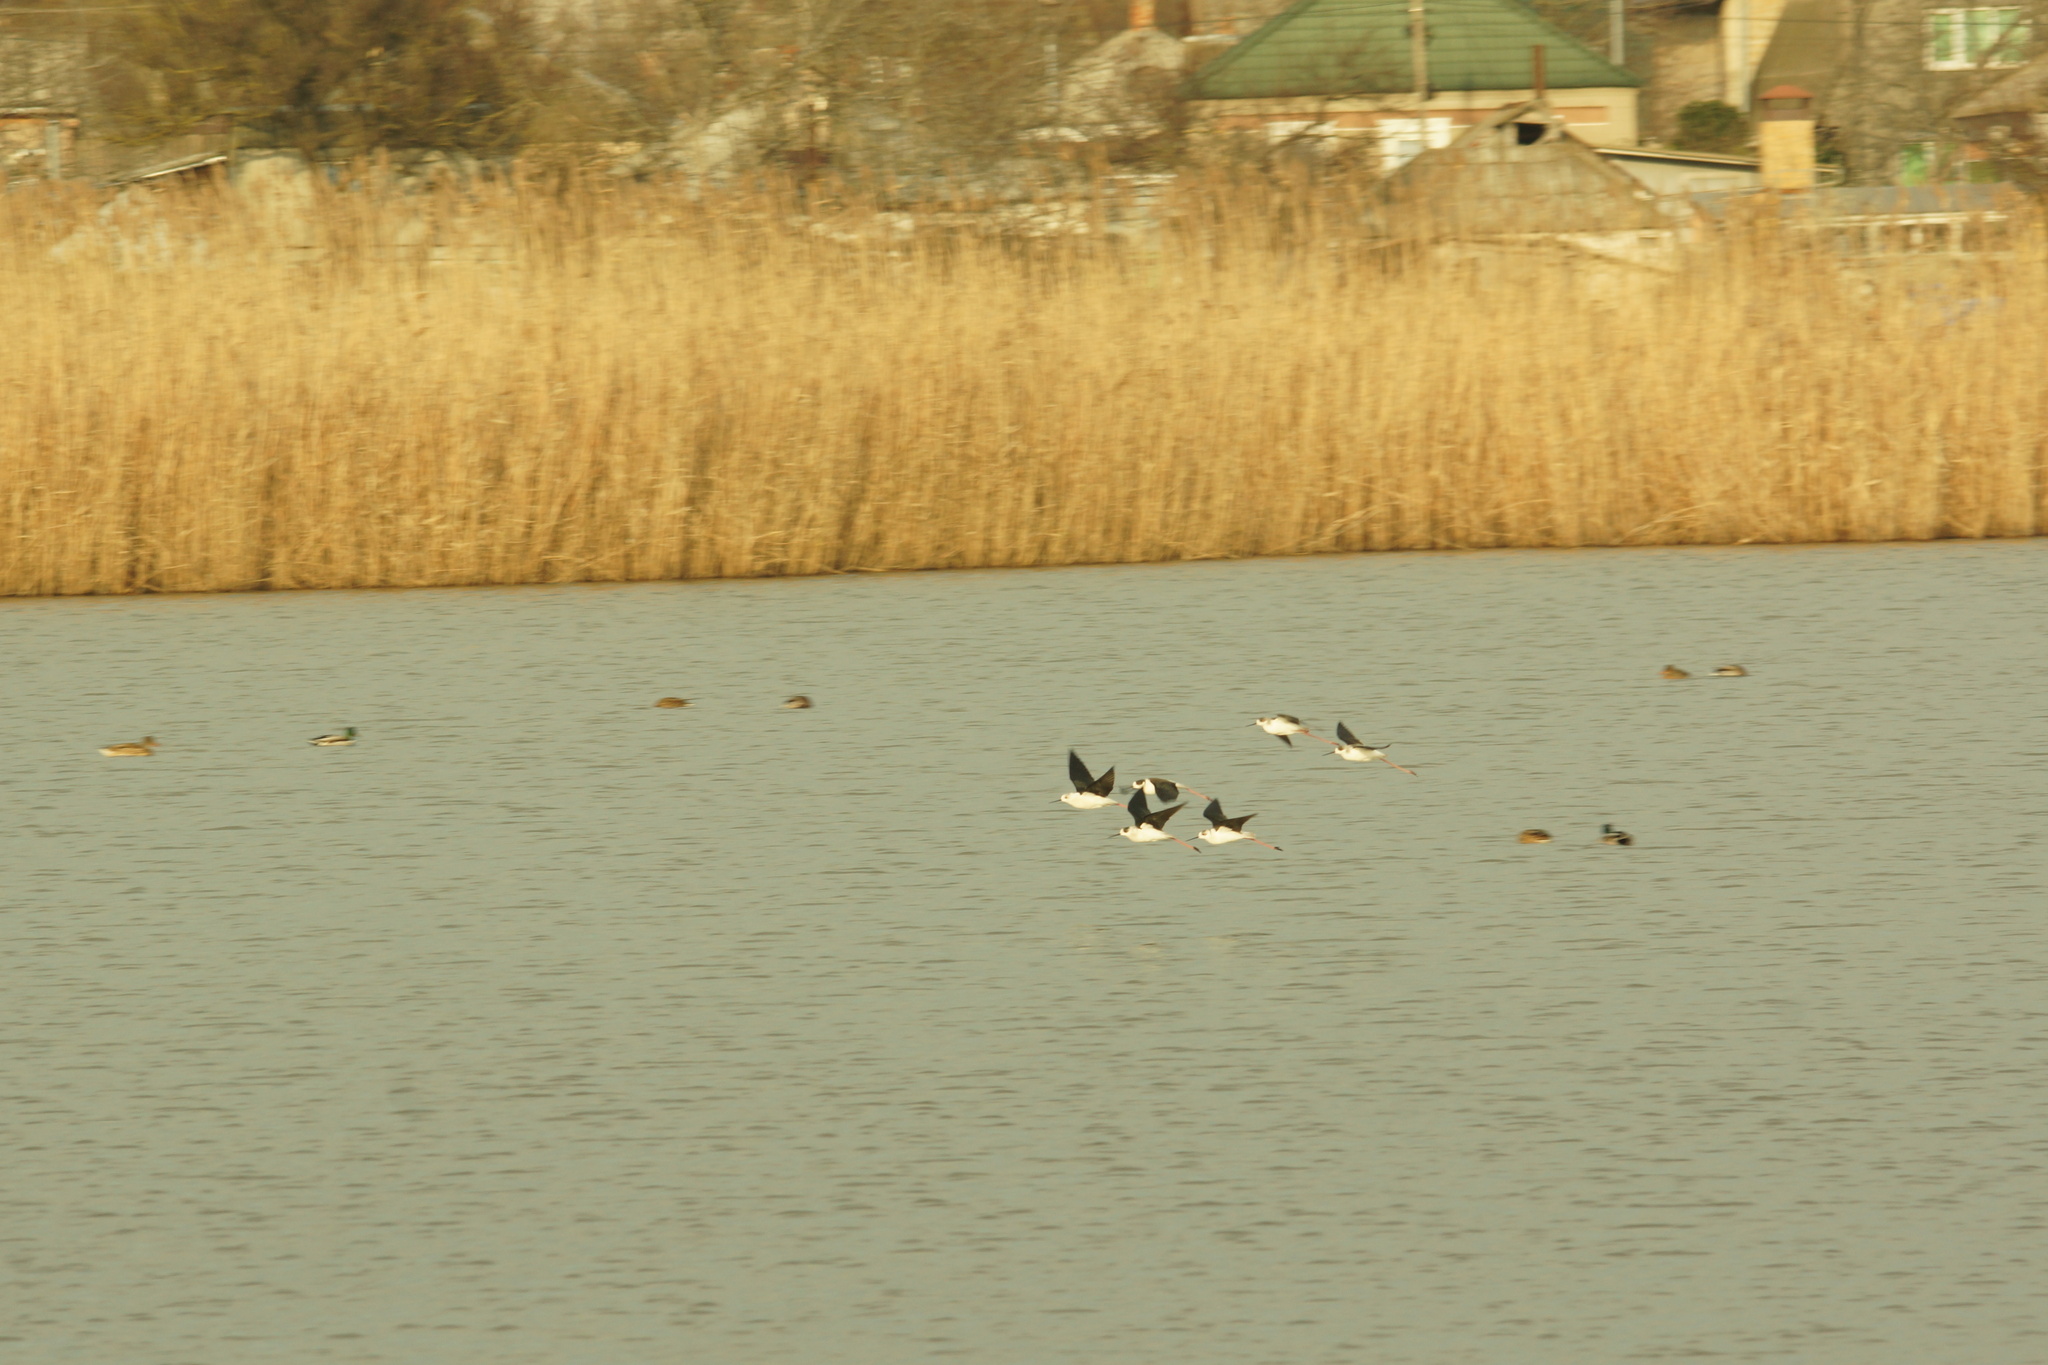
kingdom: Animalia
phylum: Chordata
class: Aves
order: Charadriiformes
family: Recurvirostridae
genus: Himantopus
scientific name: Himantopus himantopus
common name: Black-winged stilt
